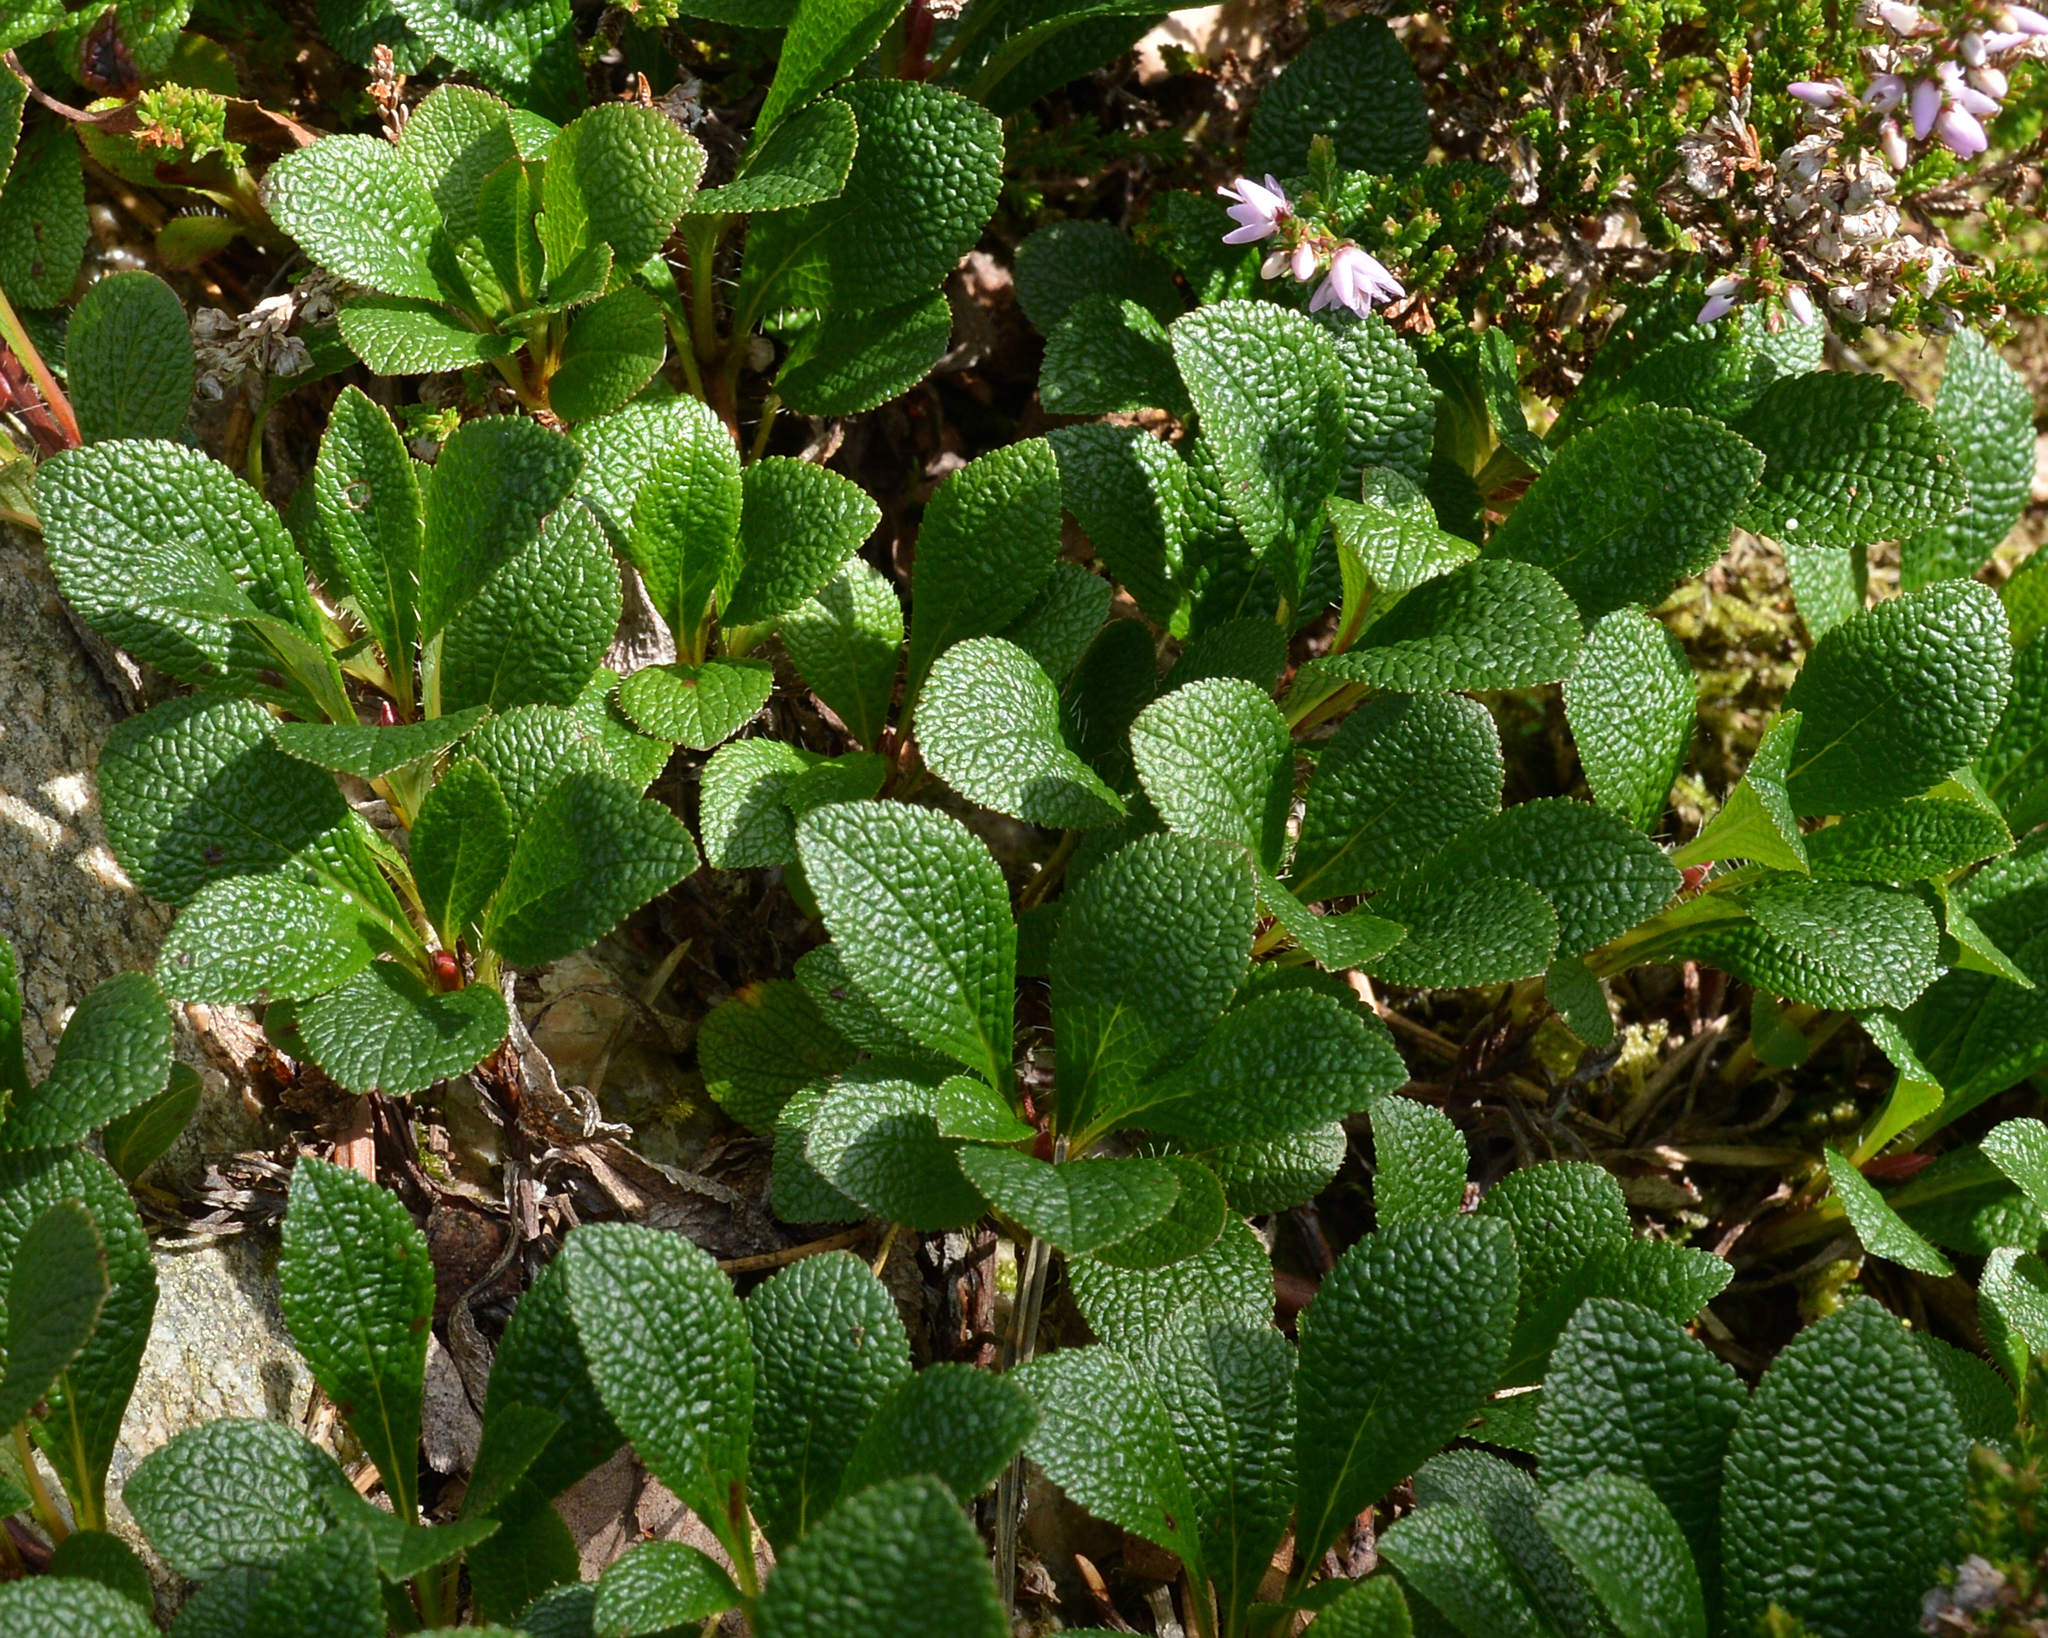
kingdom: Plantae
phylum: Tracheophyta
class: Magnoliopsida
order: Ericales
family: Ericaceae
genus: Arctostaphylos
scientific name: Arctostaphylos alpinus
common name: Alpine bearberry
